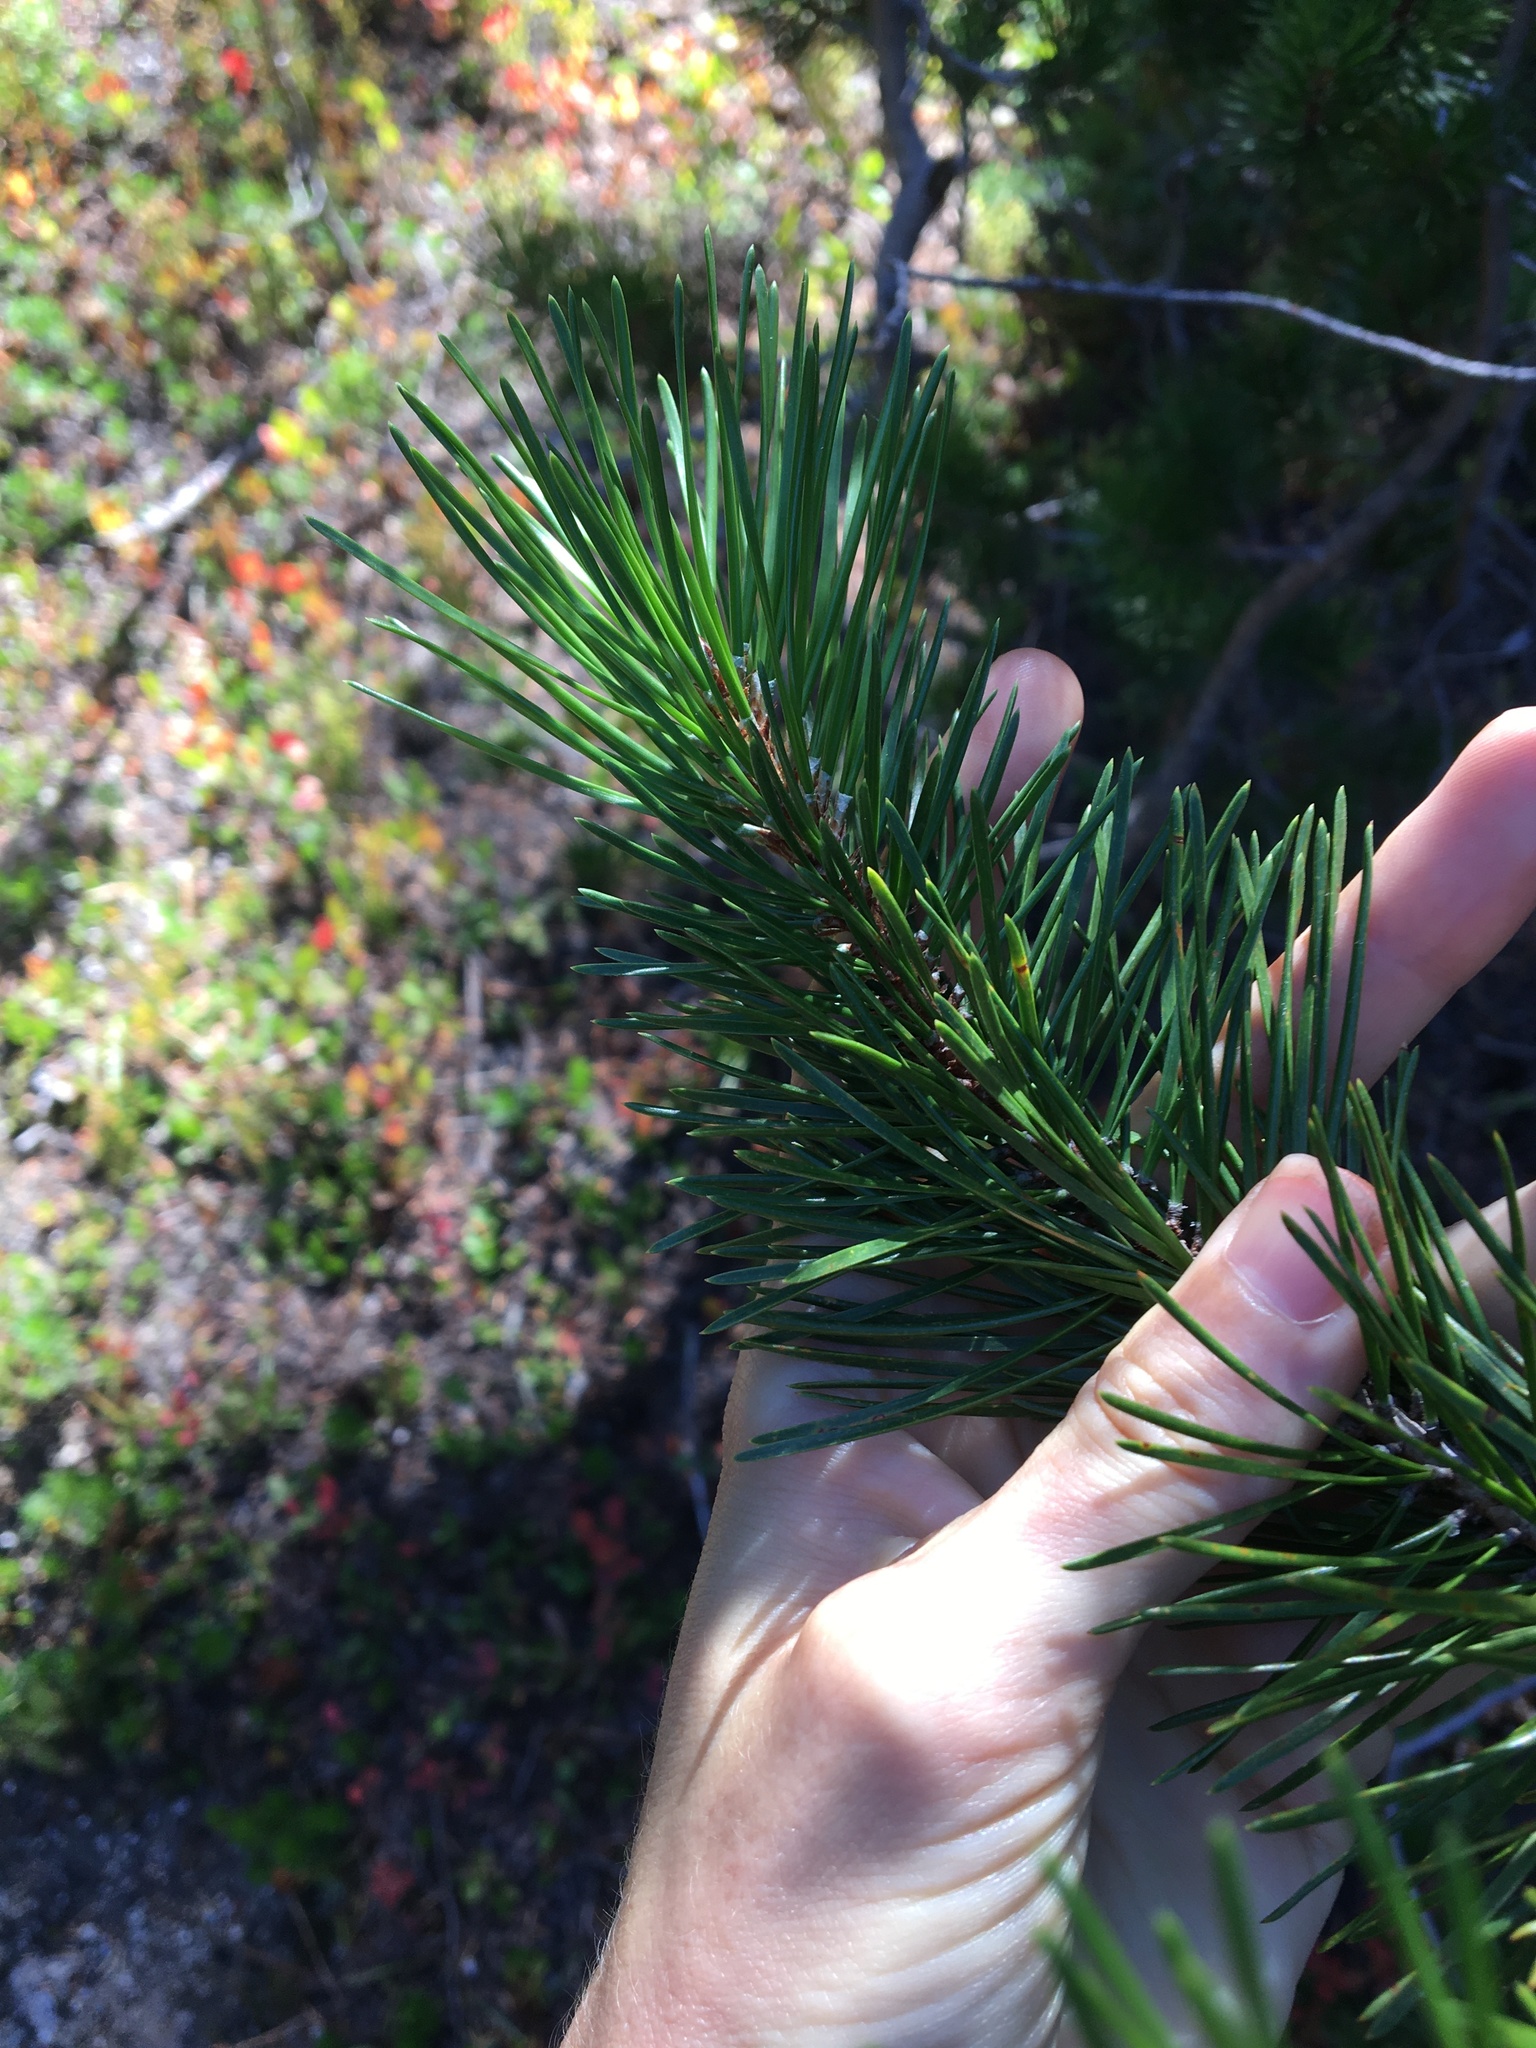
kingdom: Plantae
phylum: Tracheophyta
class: Pinopsida
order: Pinales
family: Pinaceae
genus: Pinus
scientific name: Pinus contorta
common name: Lodgepole pine
